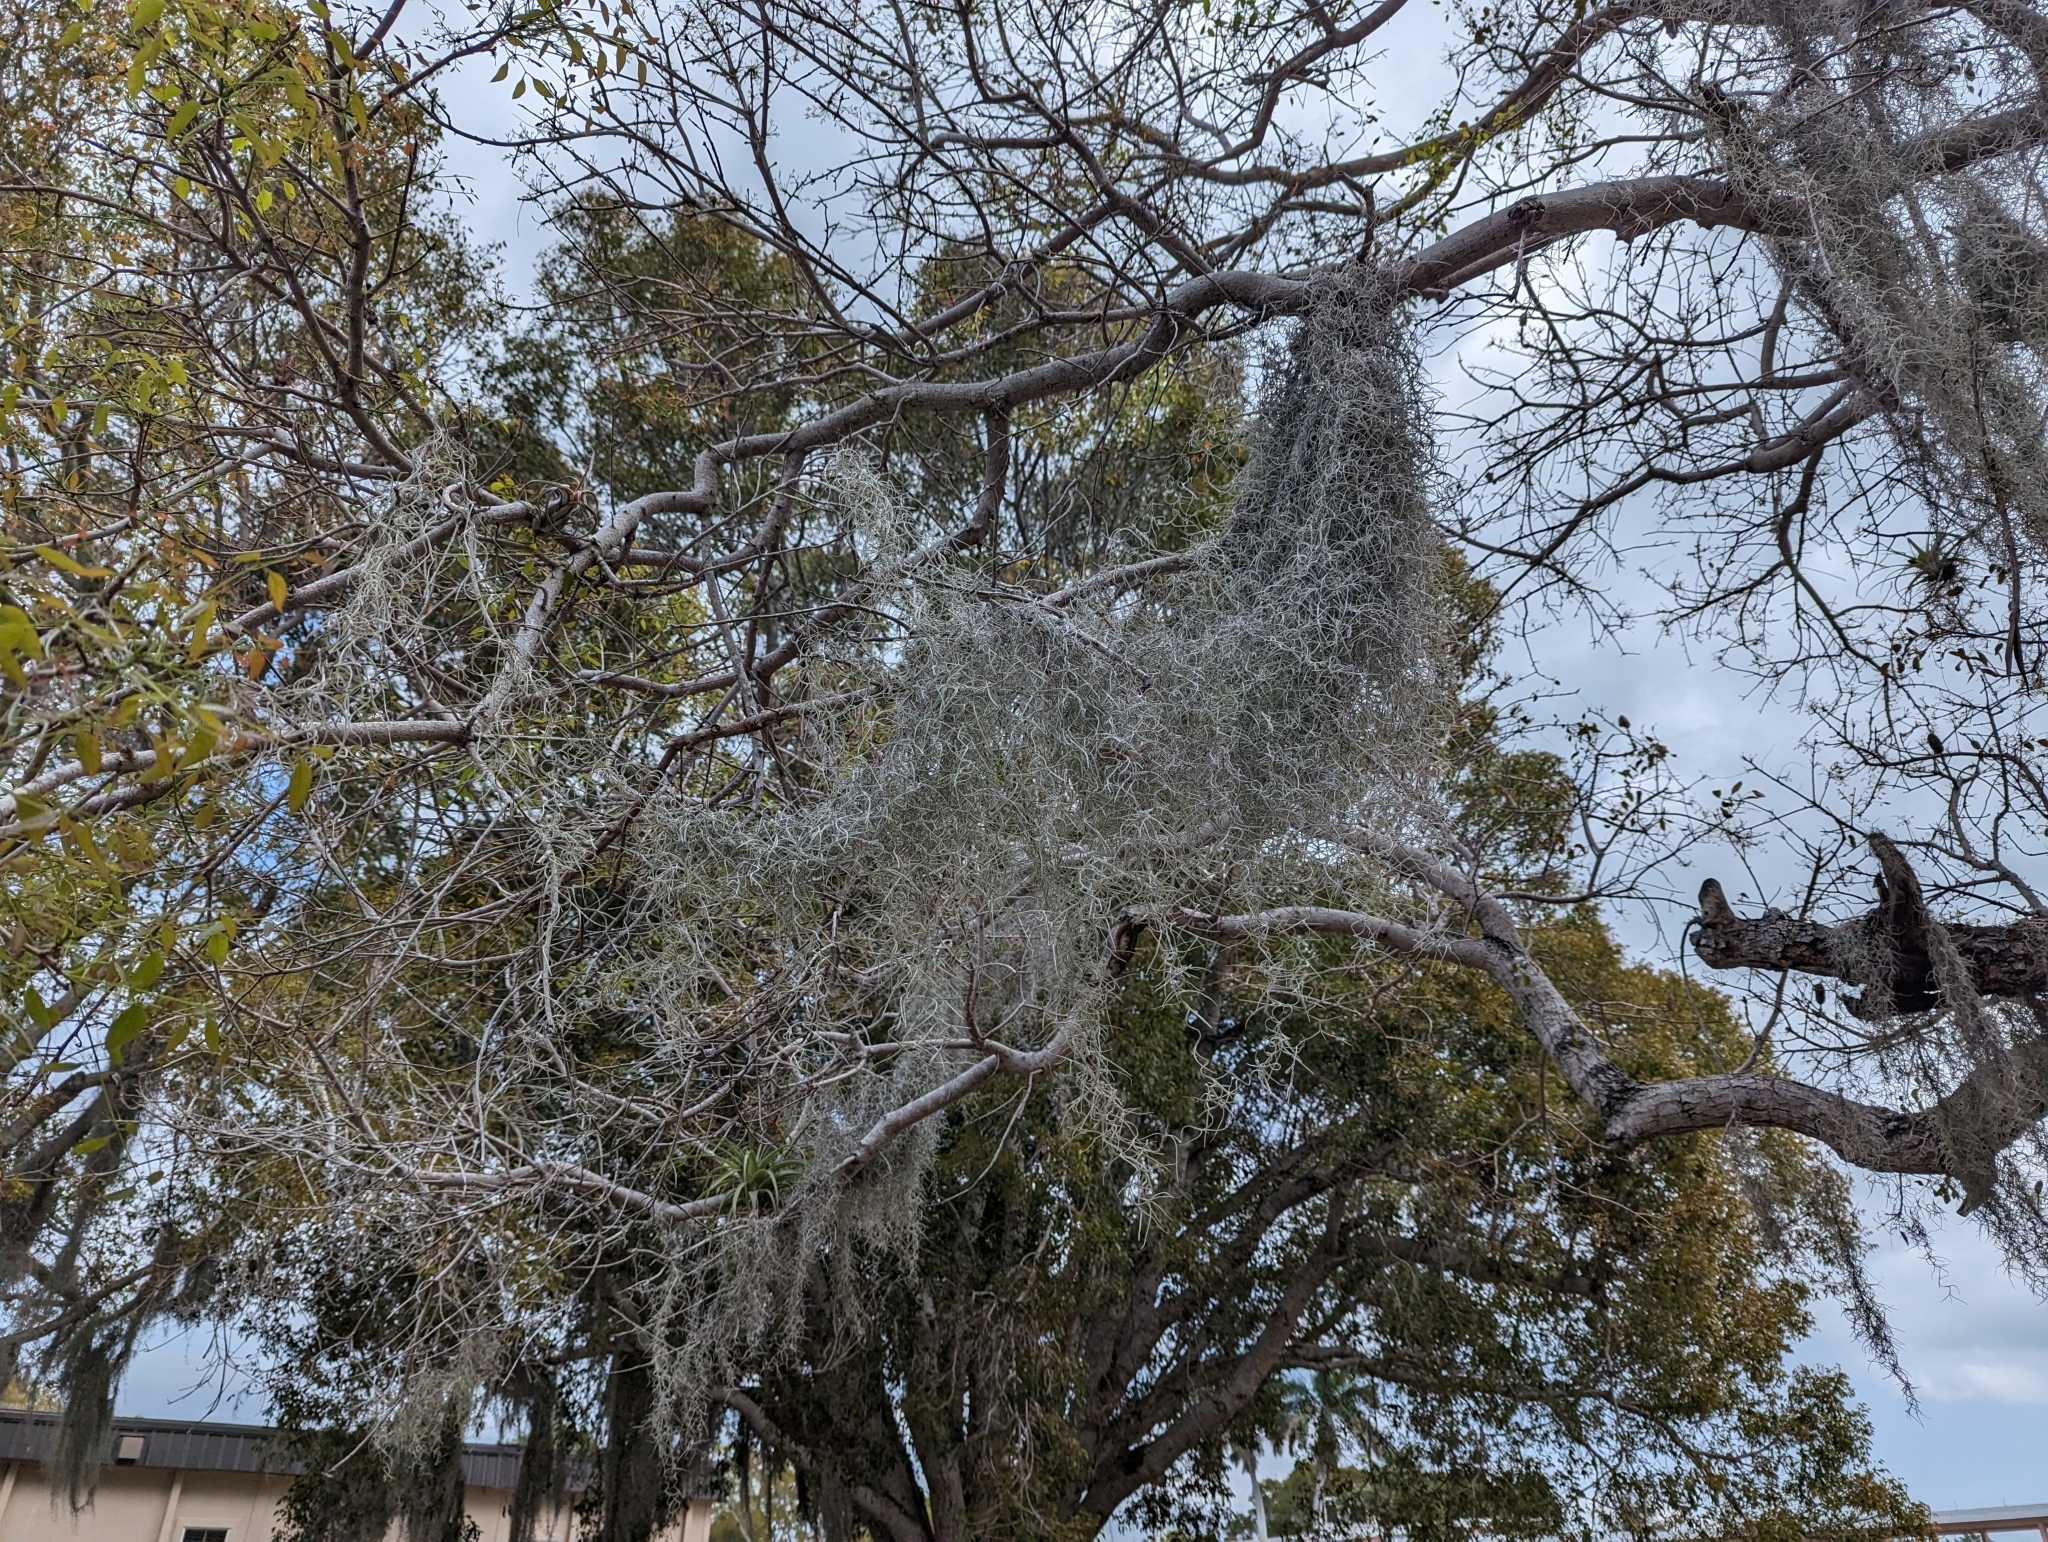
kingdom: Plantae
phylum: Tracheophyta
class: Liliopsida
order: Poales
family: Bromeliaceae
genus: Tillandsia
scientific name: Tillandsia usneoides
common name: Spanish moss
